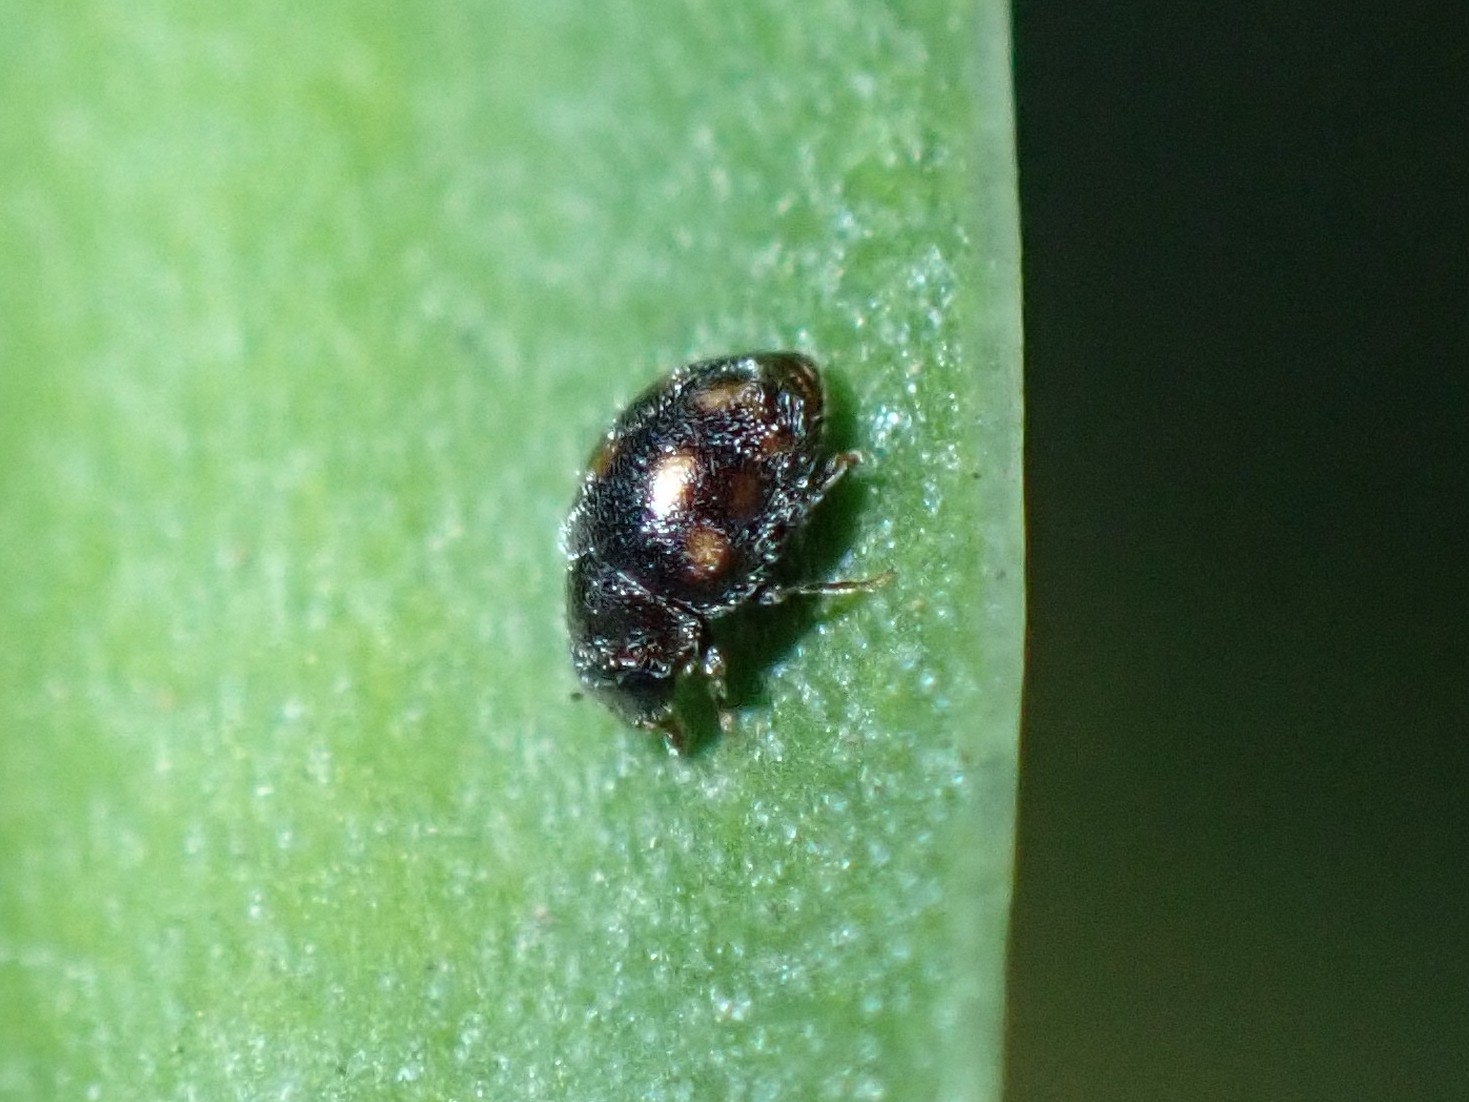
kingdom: Animalia
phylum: Arthropoda
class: Insecta
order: Coleoptera
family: Coccinellidae
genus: Nephus
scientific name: Nephus flavopictus
